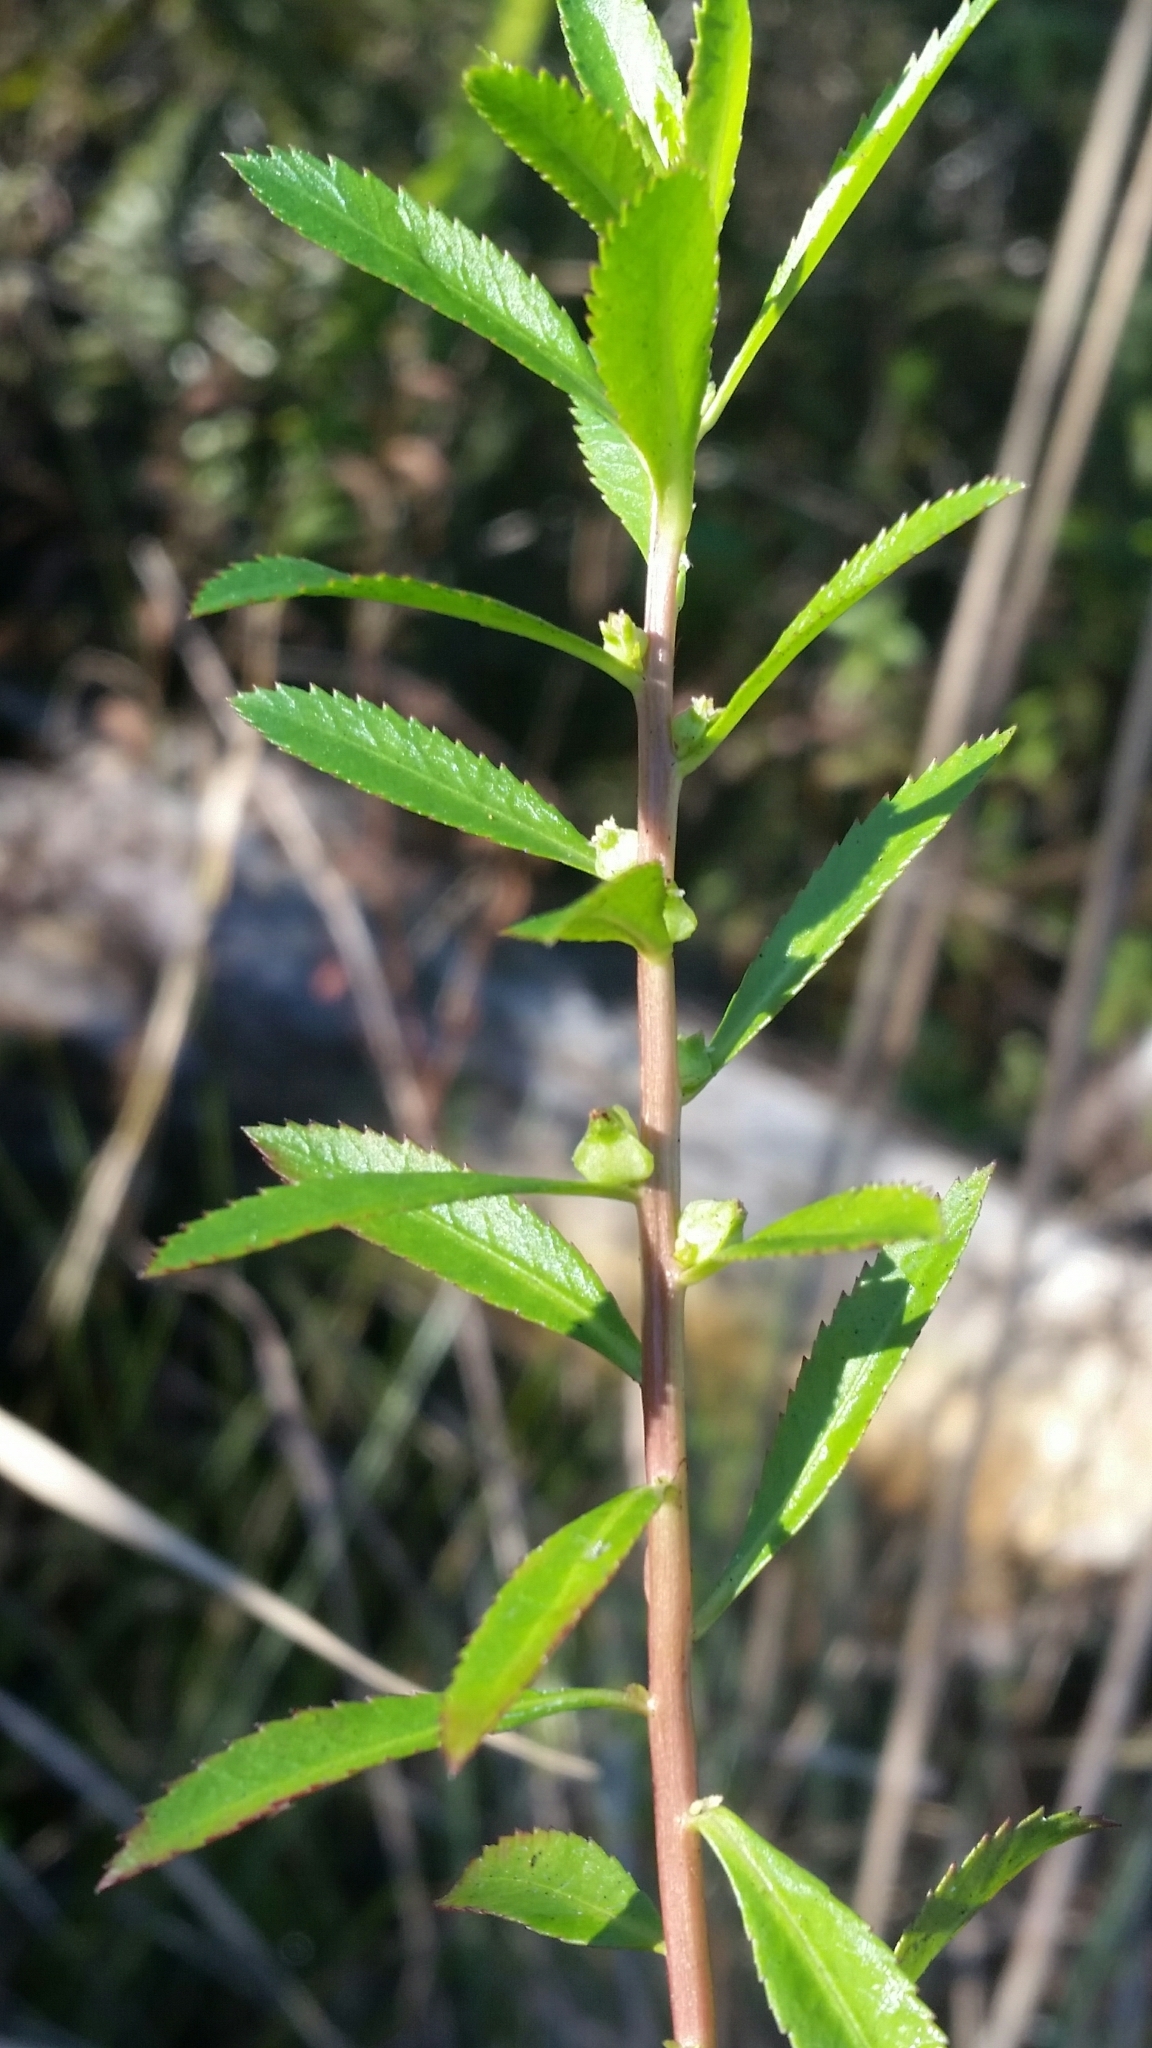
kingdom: Plantae
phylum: Tracheophyta
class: Magnoliopsida
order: Saxifragales
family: Haloragaceae
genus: Proserpinaca
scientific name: Proserpinaca palustris
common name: Marsh mermaidweed
